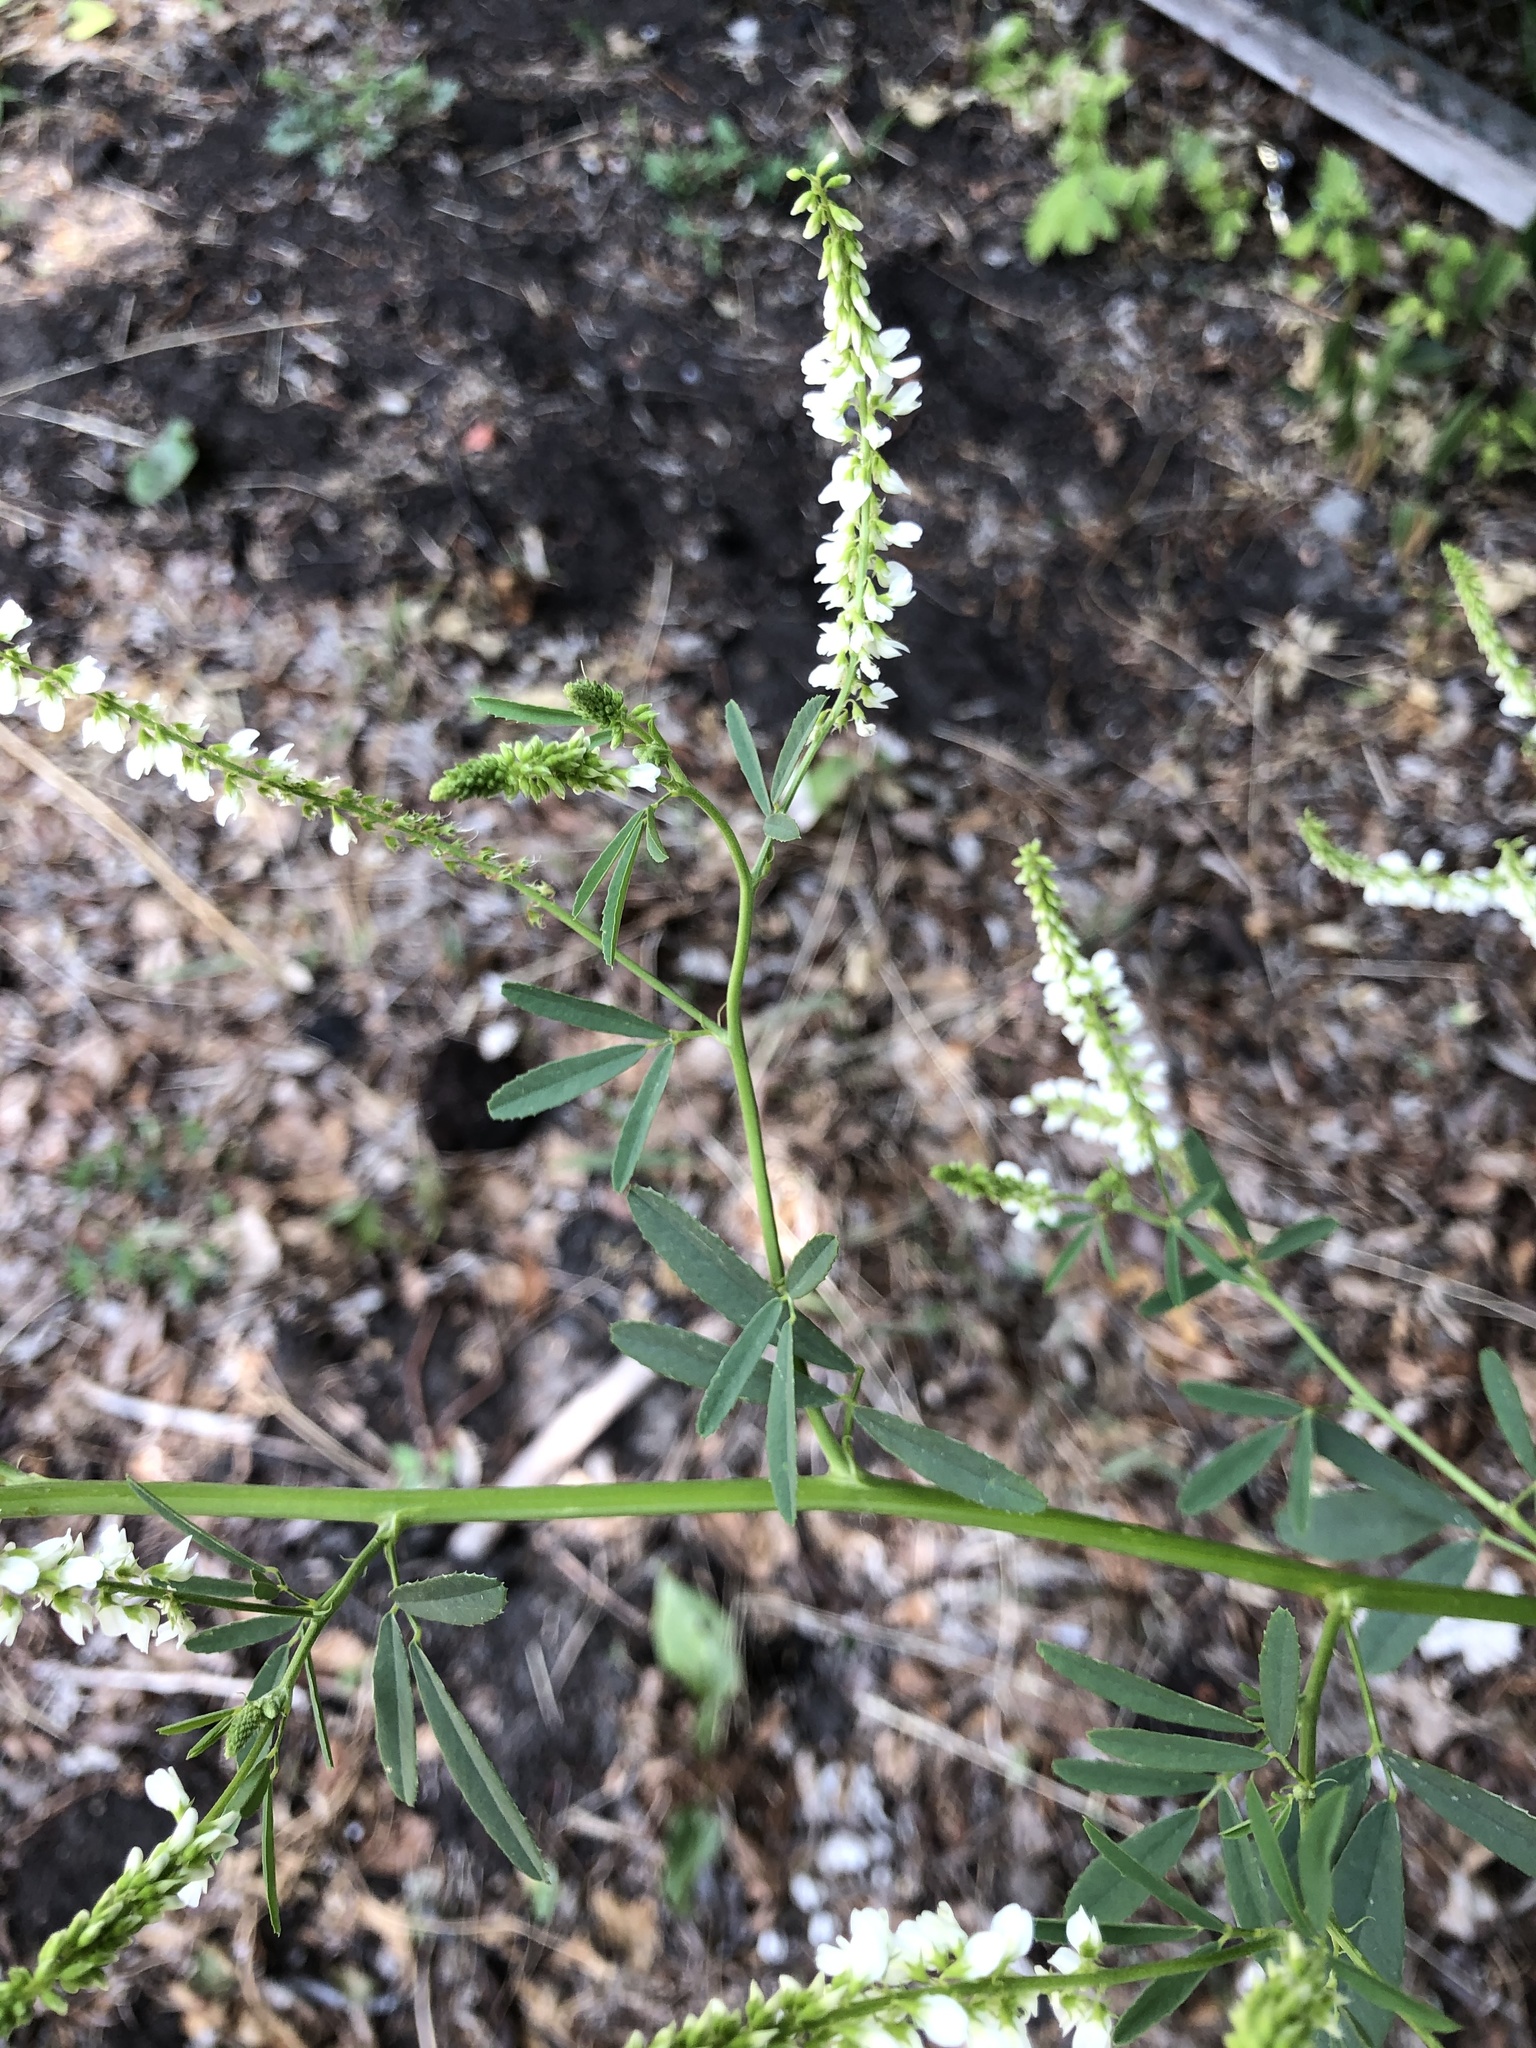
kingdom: Plantae
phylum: Tracheophyta
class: Magnoliopsida
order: Fabales
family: Fabaceae
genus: Melilotus
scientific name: Melilotus albus
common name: White melilot
